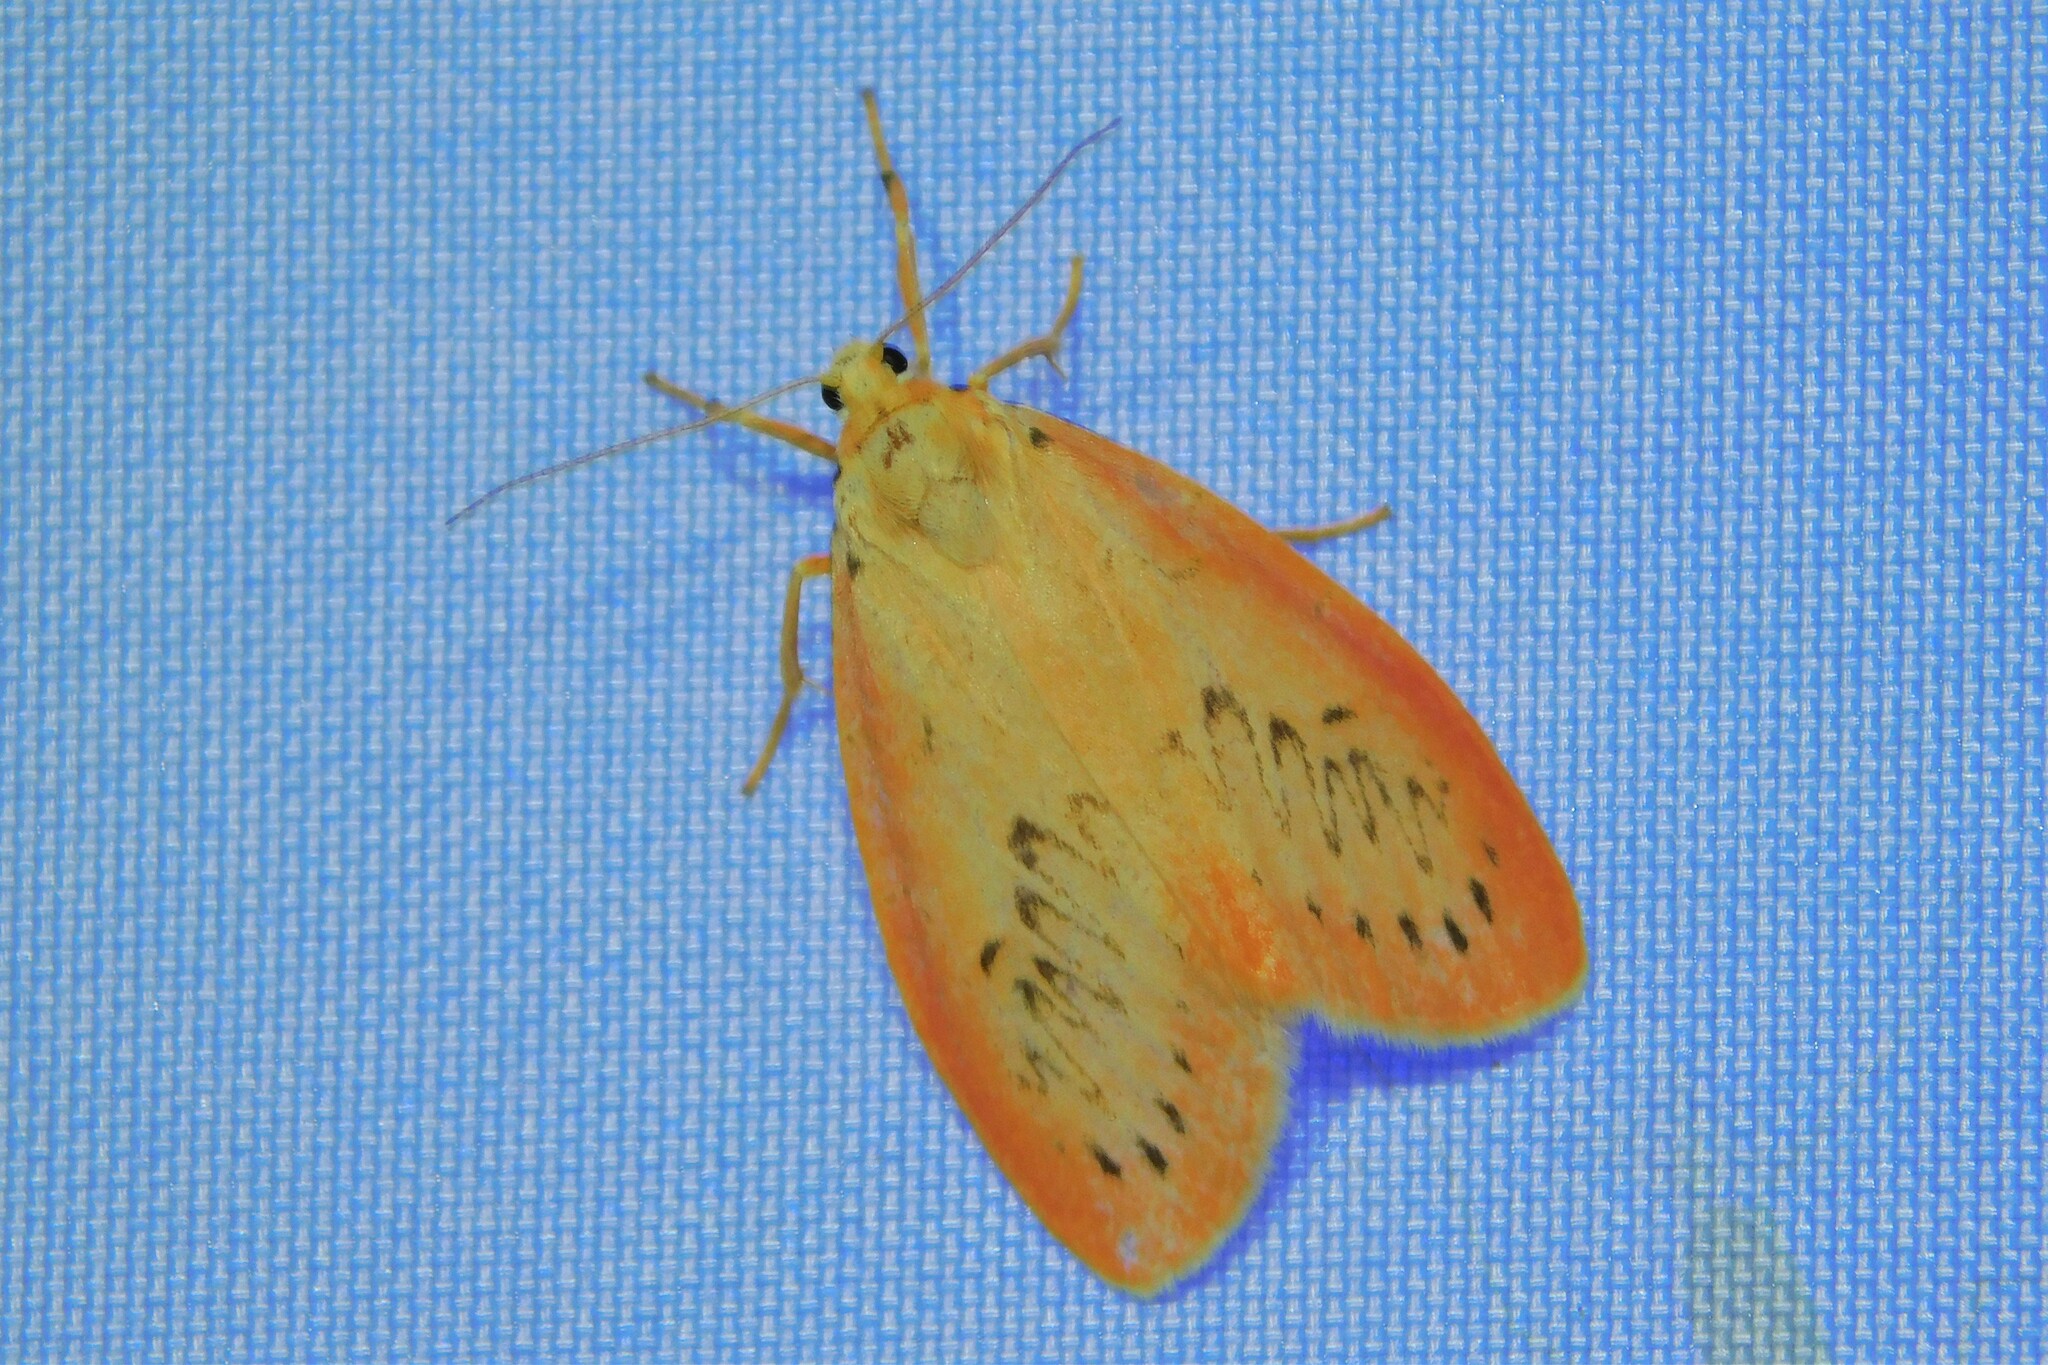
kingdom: Animalia
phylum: Arthropoda
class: Insecta
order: Lepidoptera
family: Erebidae
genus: Miltochrista
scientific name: Miltochrista miniata
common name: Rosy footman
